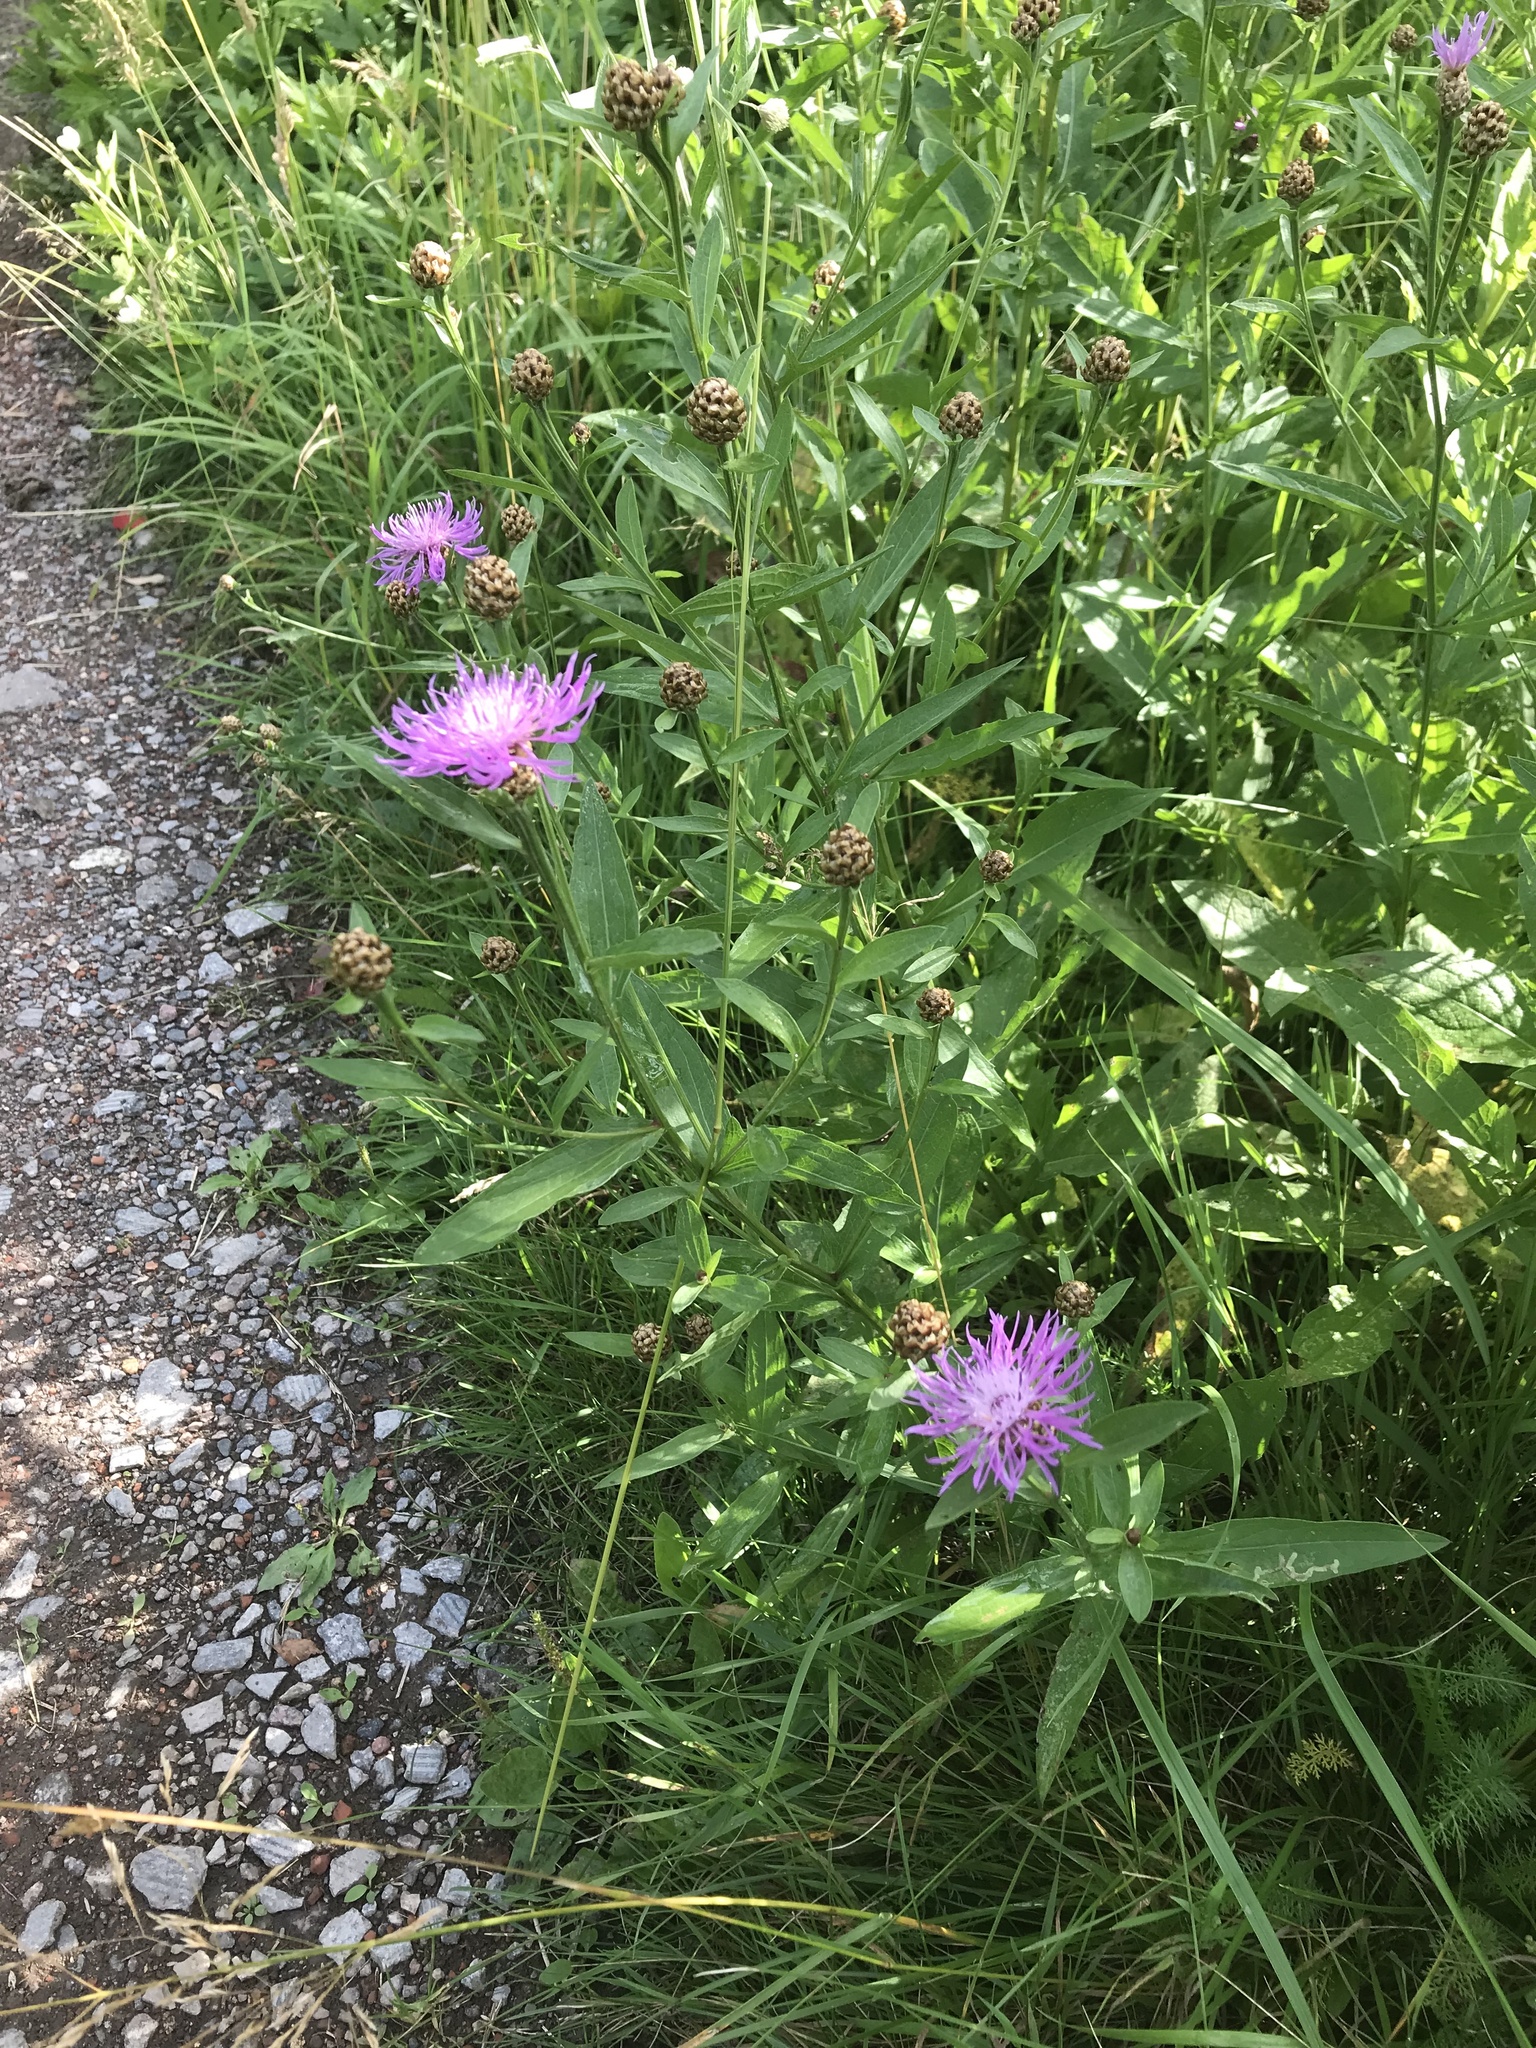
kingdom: Plantae
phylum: Tracheophyta
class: Magnoliopsida
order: Asterales
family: Asteraceae
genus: Centaurea
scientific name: Centaurea jacea
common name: Brown knapweed
